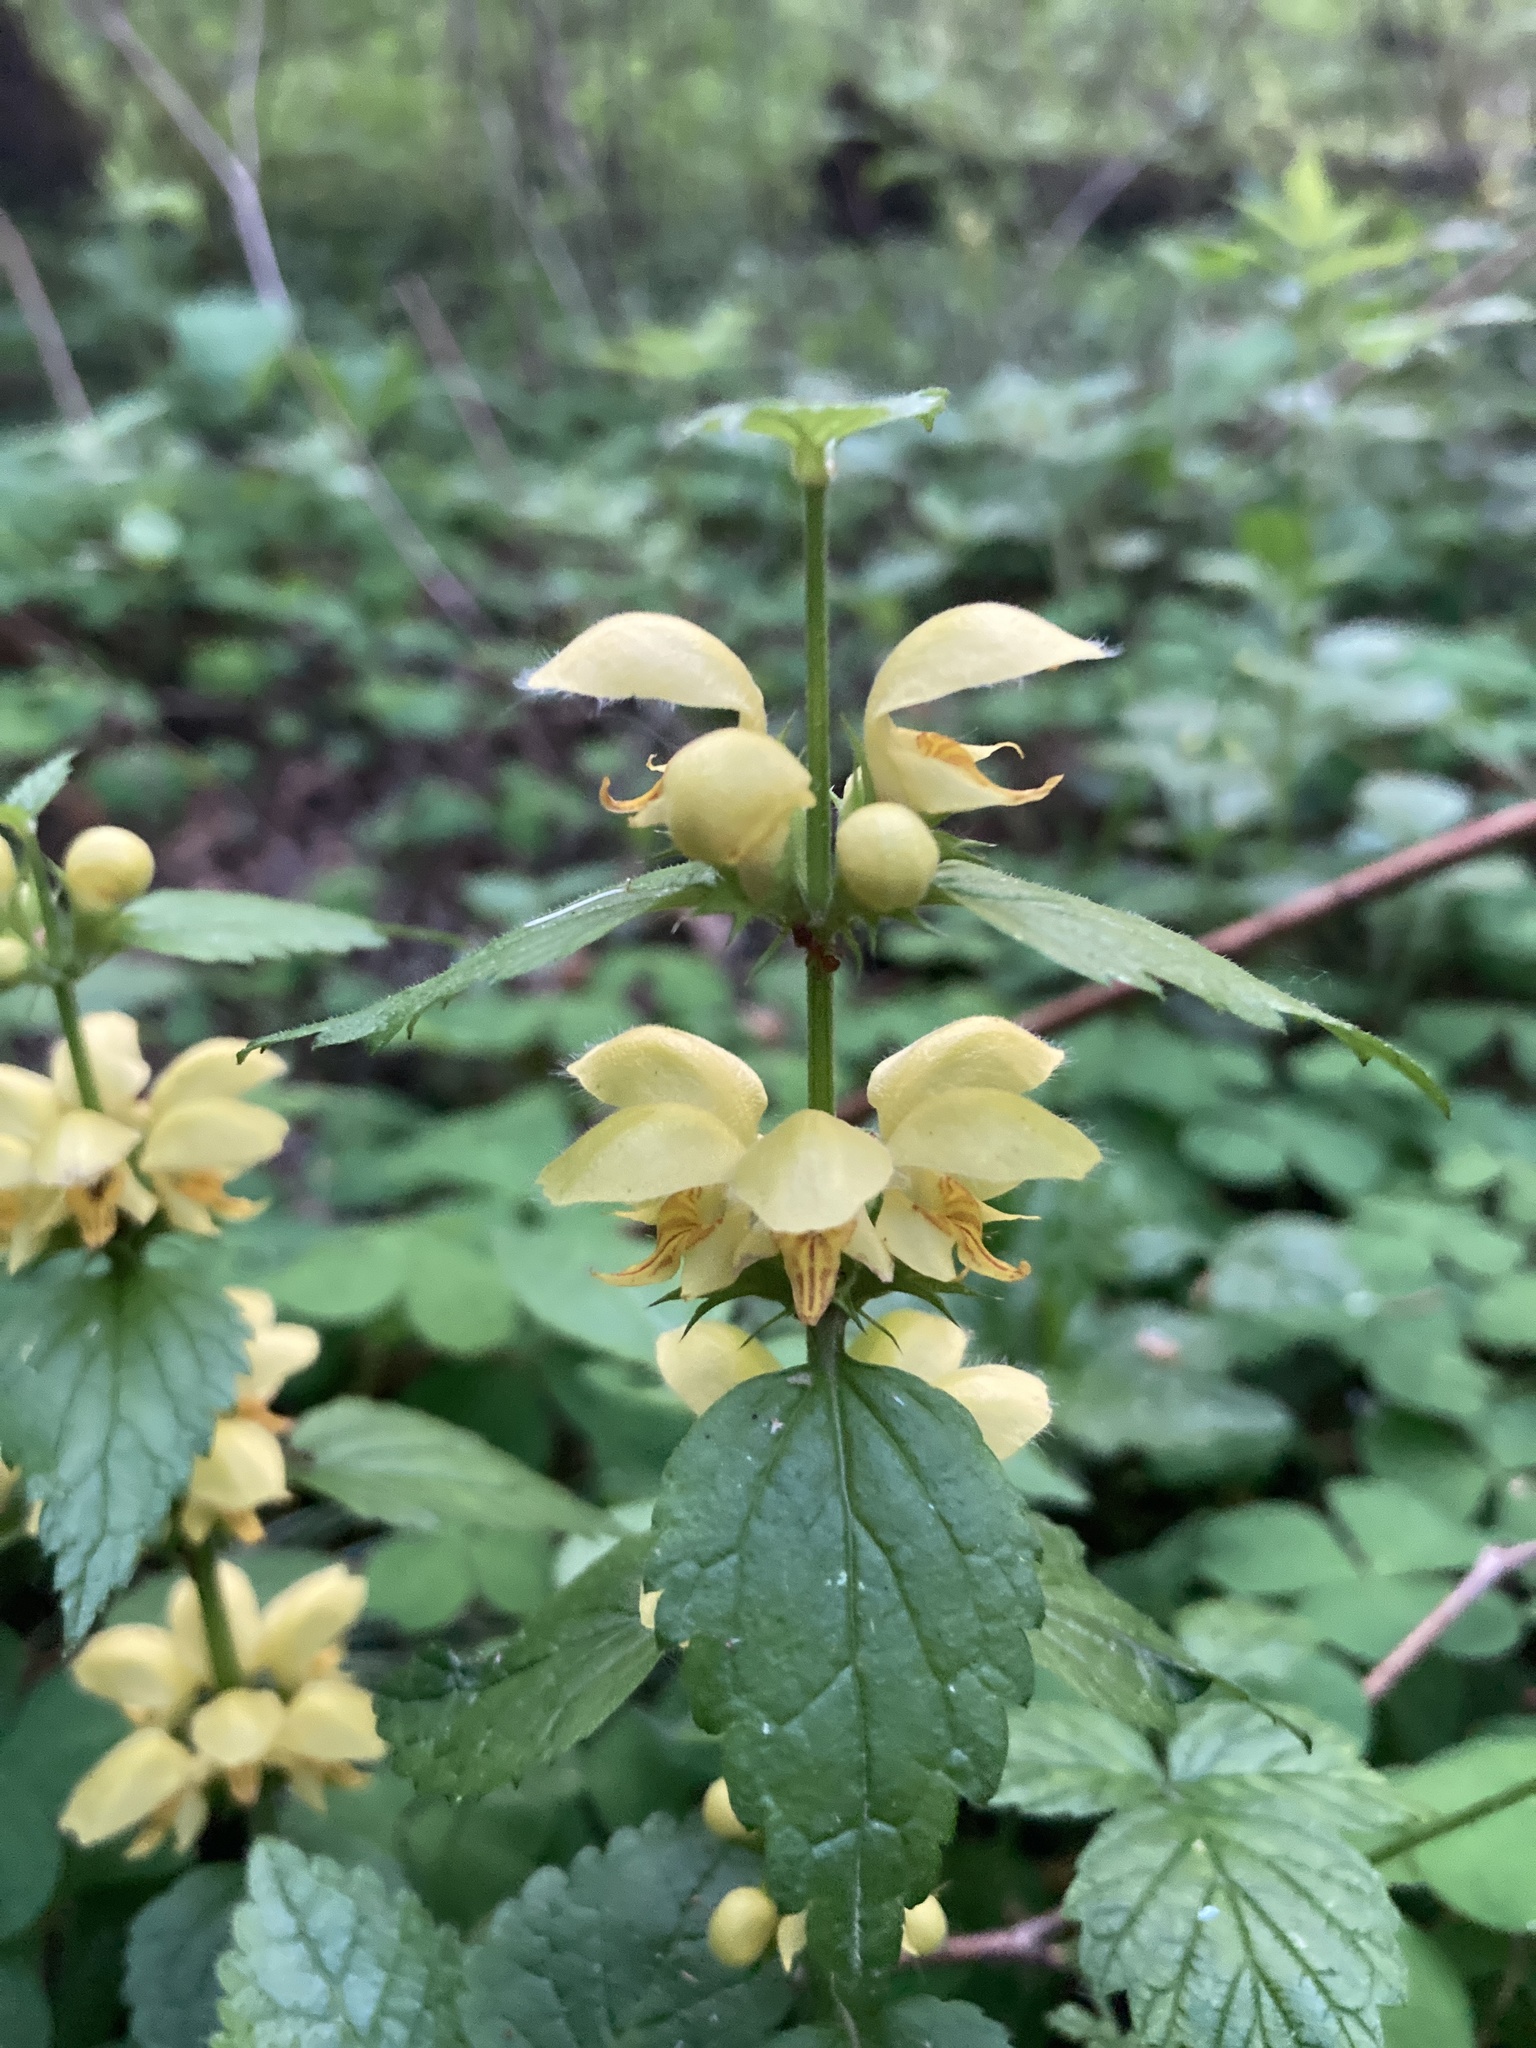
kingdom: Plantae
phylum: Tracheophyta
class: Magnoliopsida
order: Lamiales
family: Lamiaceae
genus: Lamium
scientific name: Lamium galeobdolon
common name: Yellow archangel
